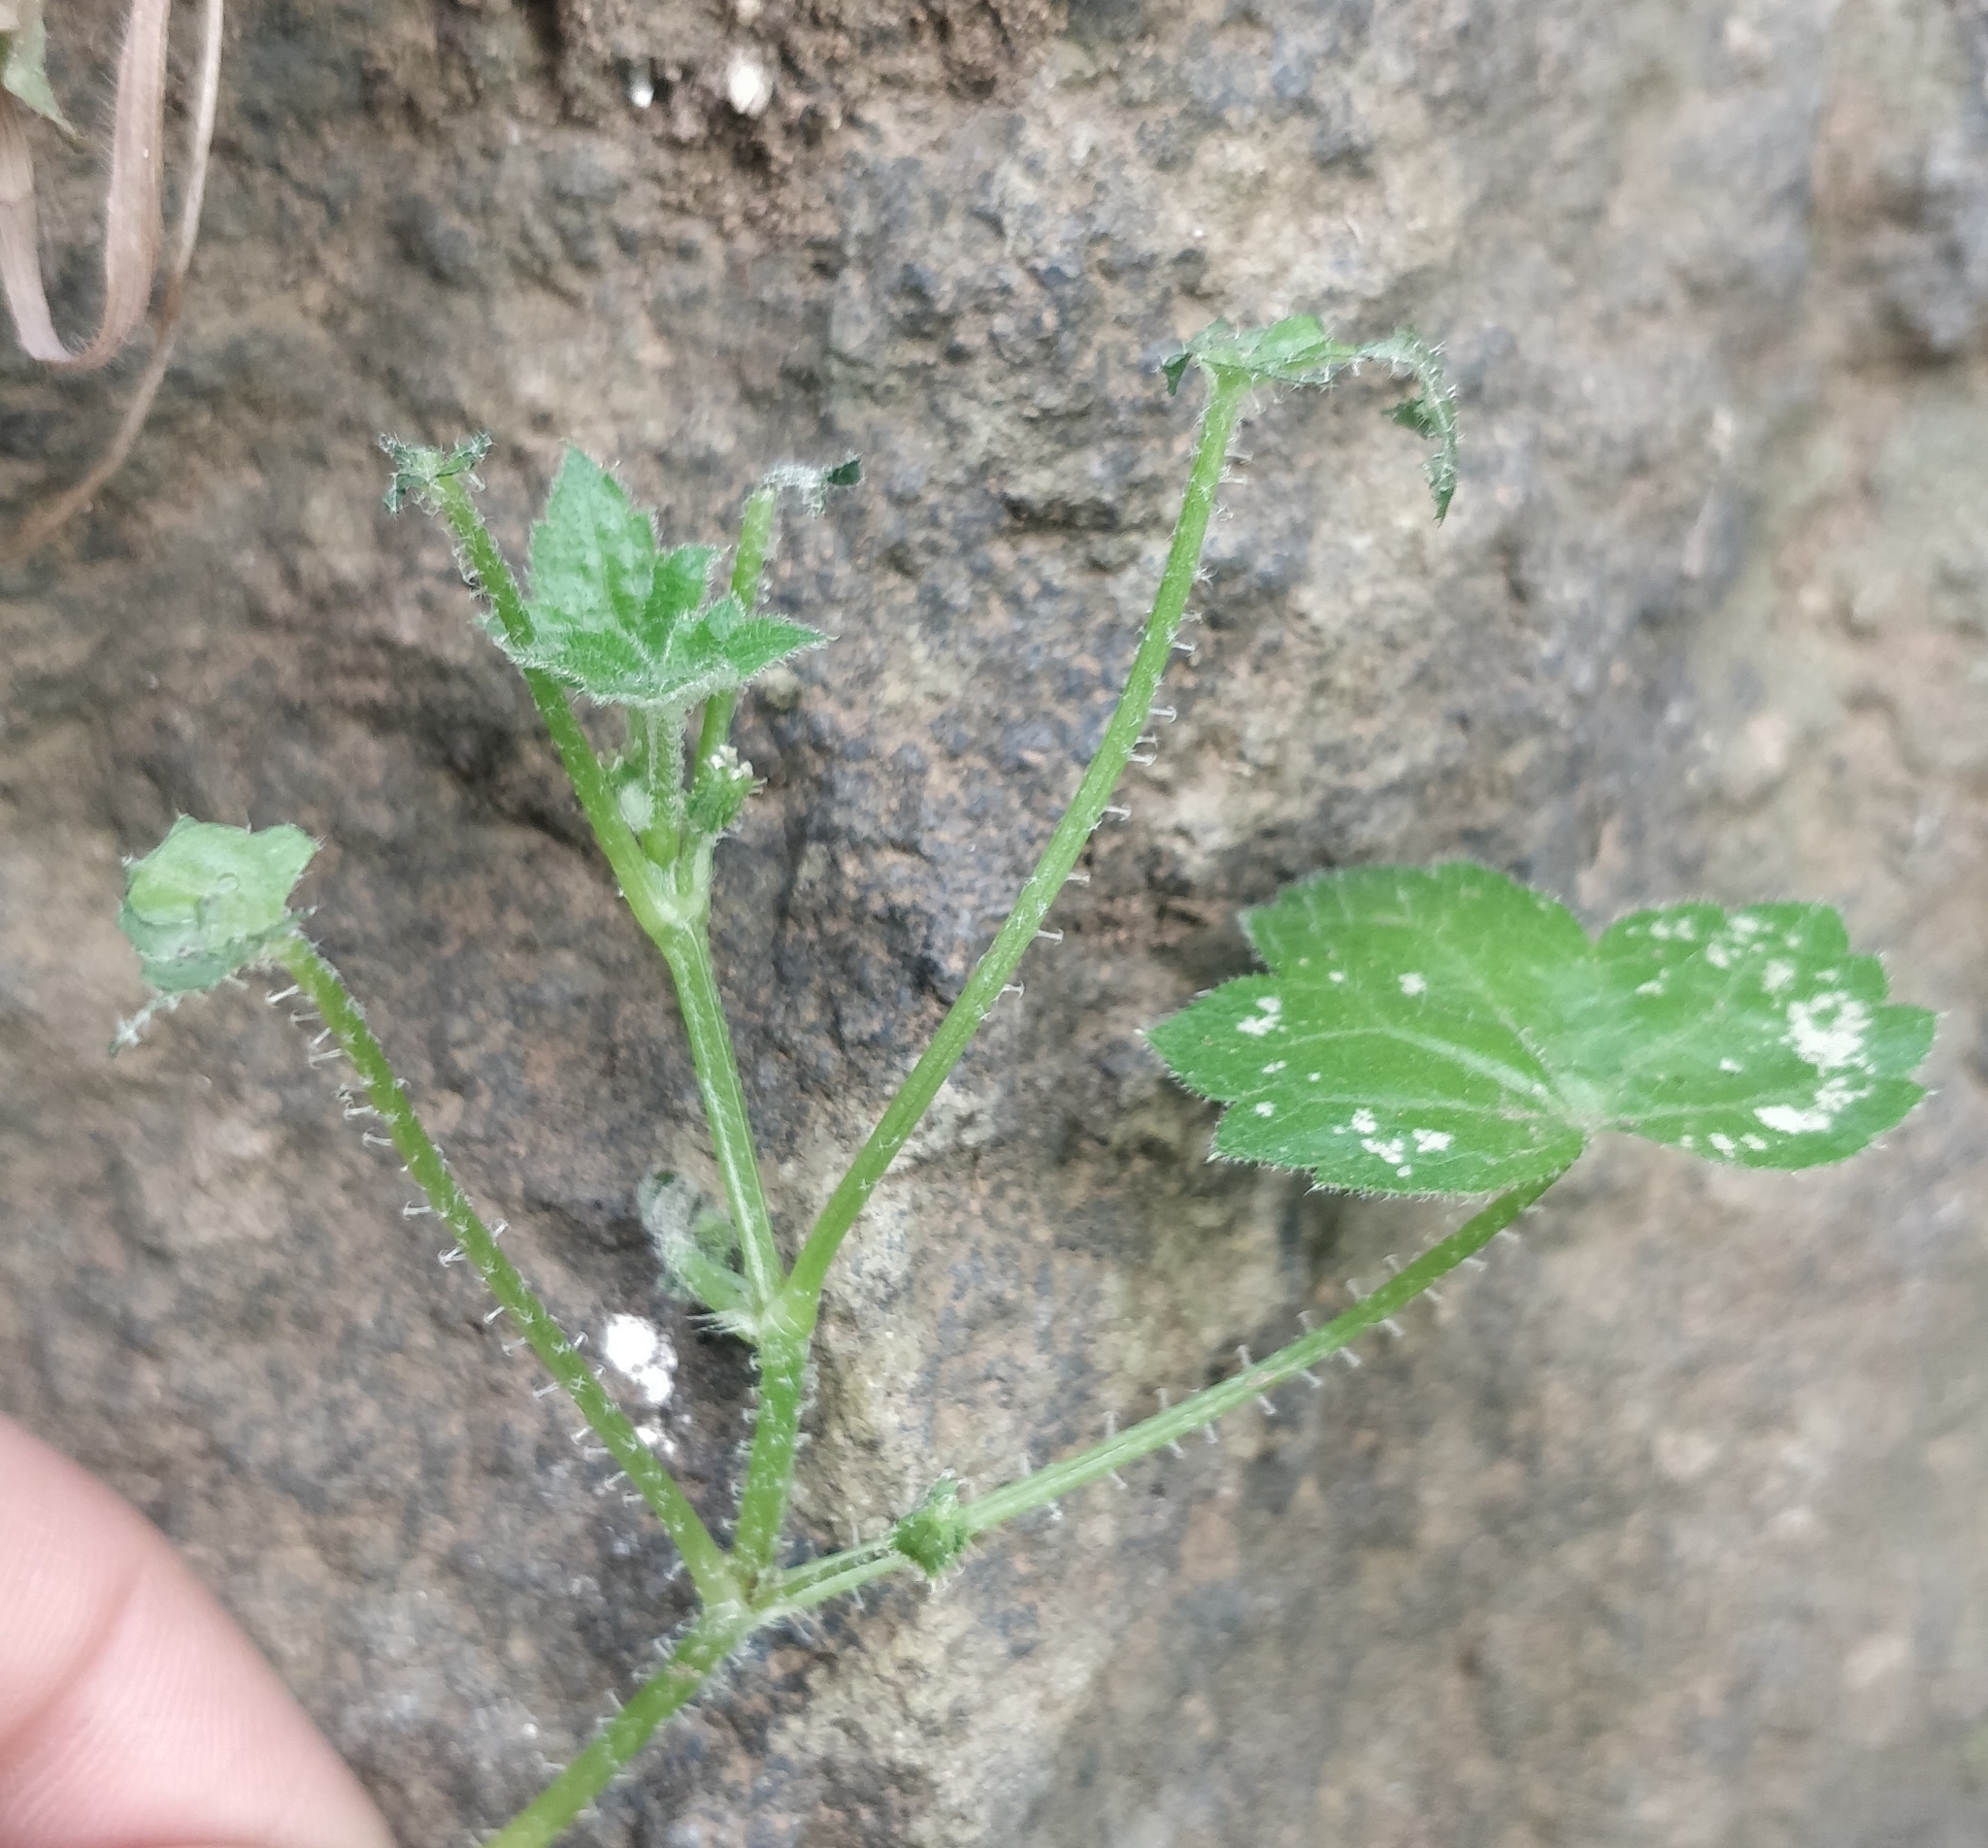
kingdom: Plantae
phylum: Tracheophyta
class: Magnoliopsida
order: Apiales
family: Apiaceae
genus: Drusa
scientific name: Drusa glandulosa
